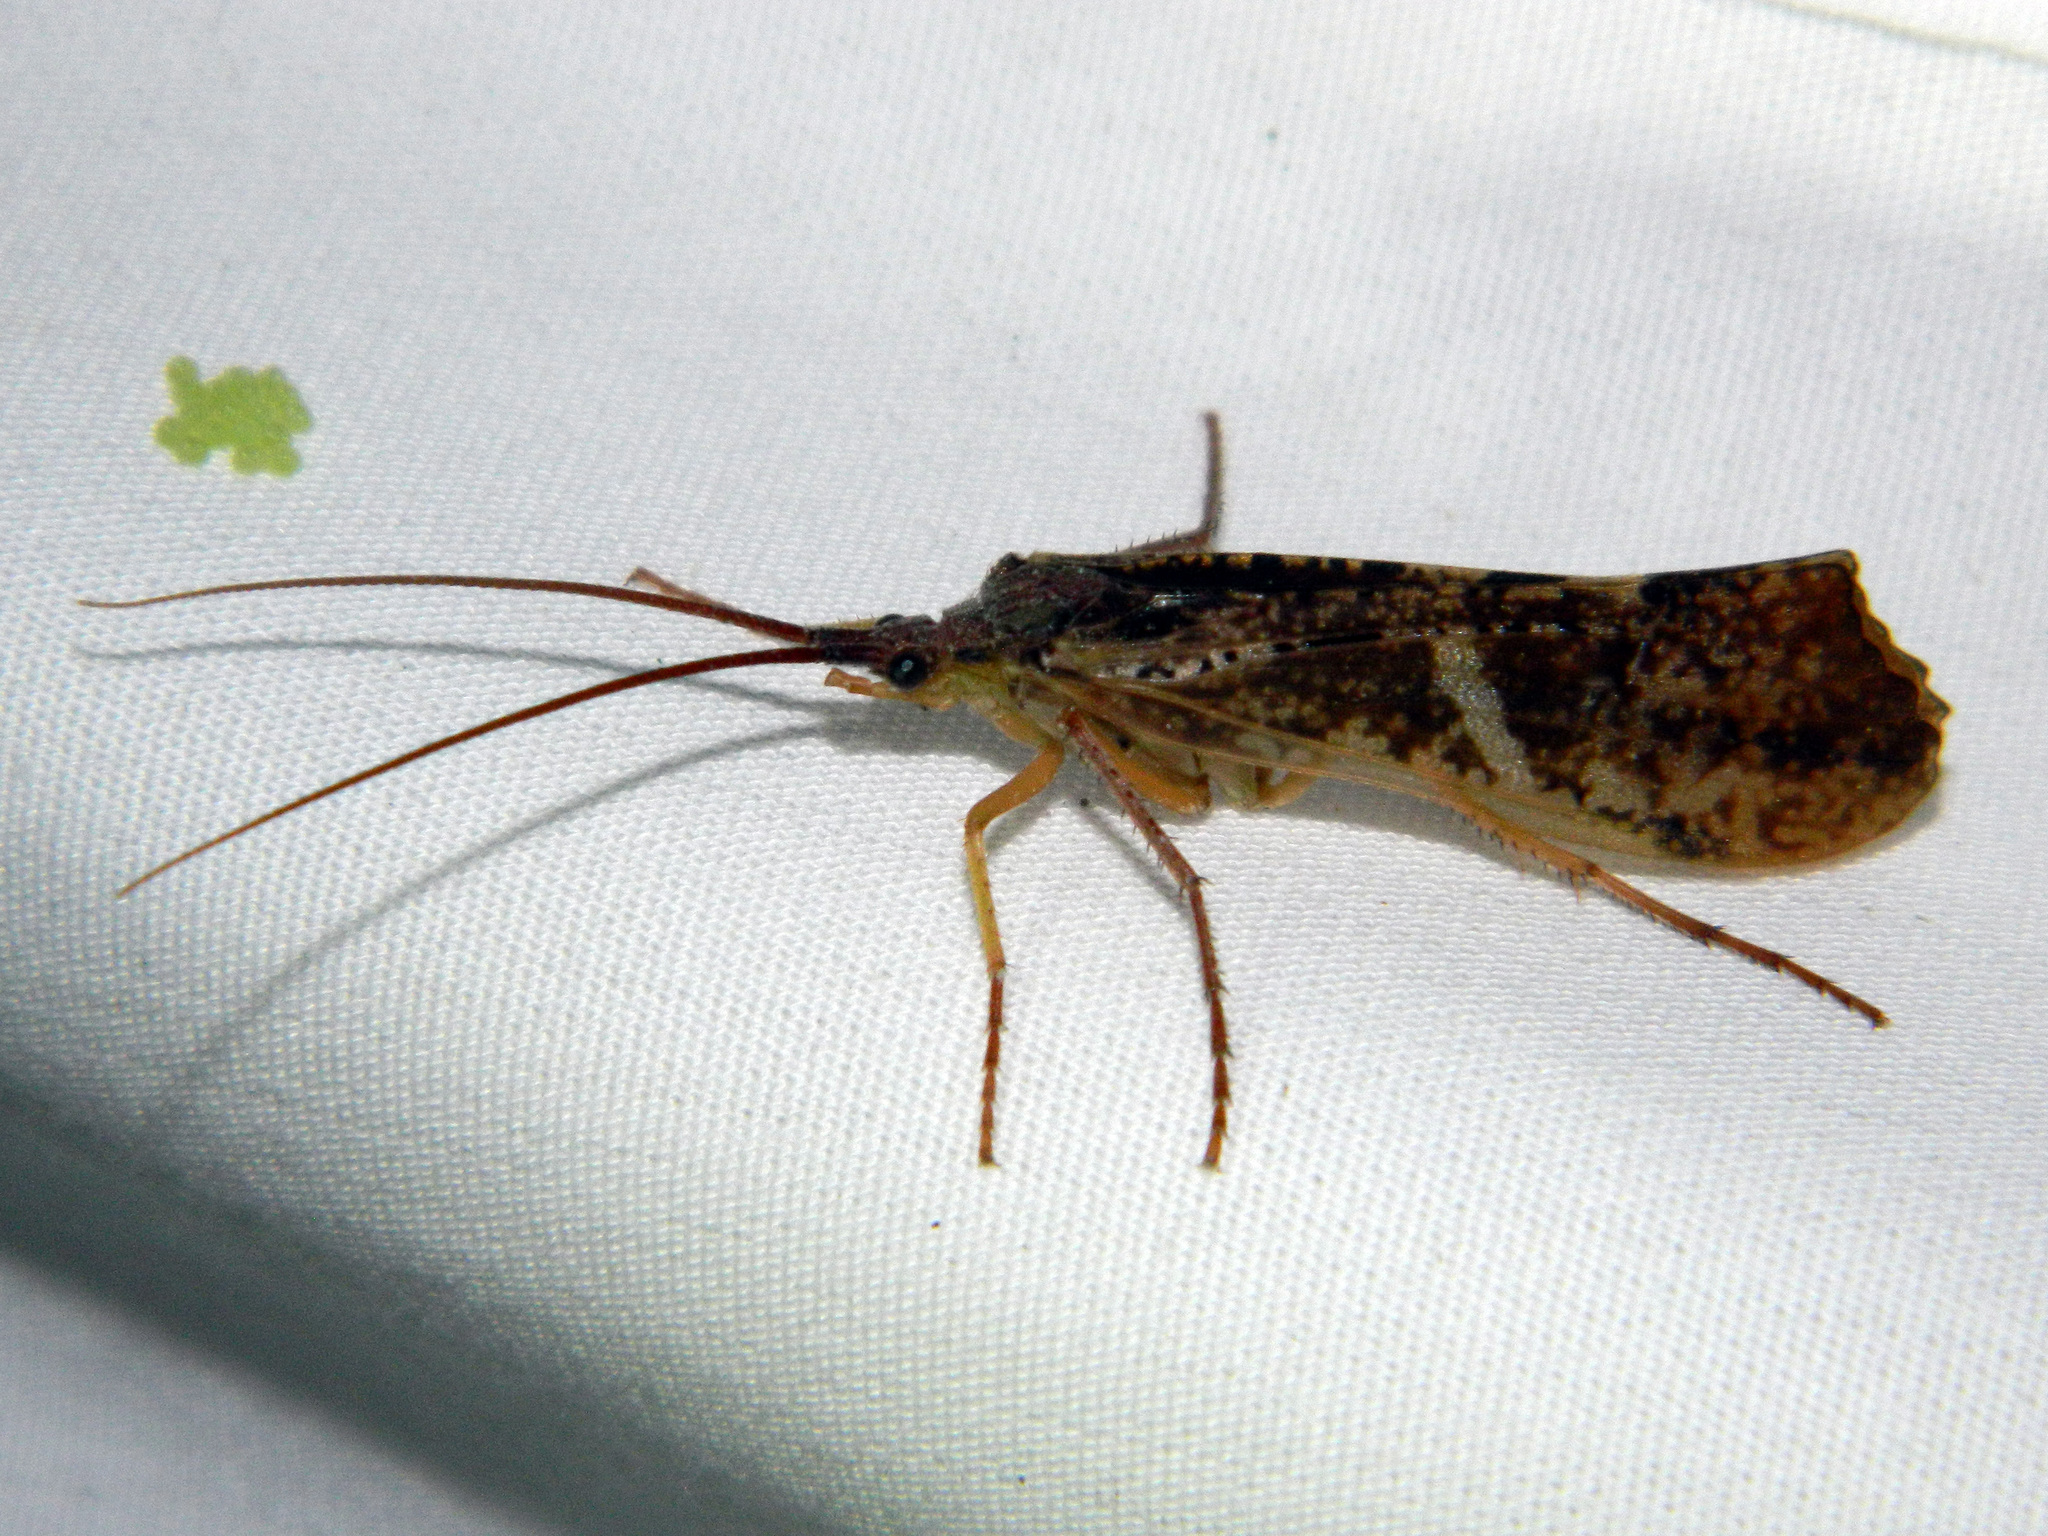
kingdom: Animalia
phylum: Arthropoda
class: Insecta
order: Trichoptera
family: Limnephilidae
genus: Nemotaulius
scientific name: Nemotaulius hostilis
